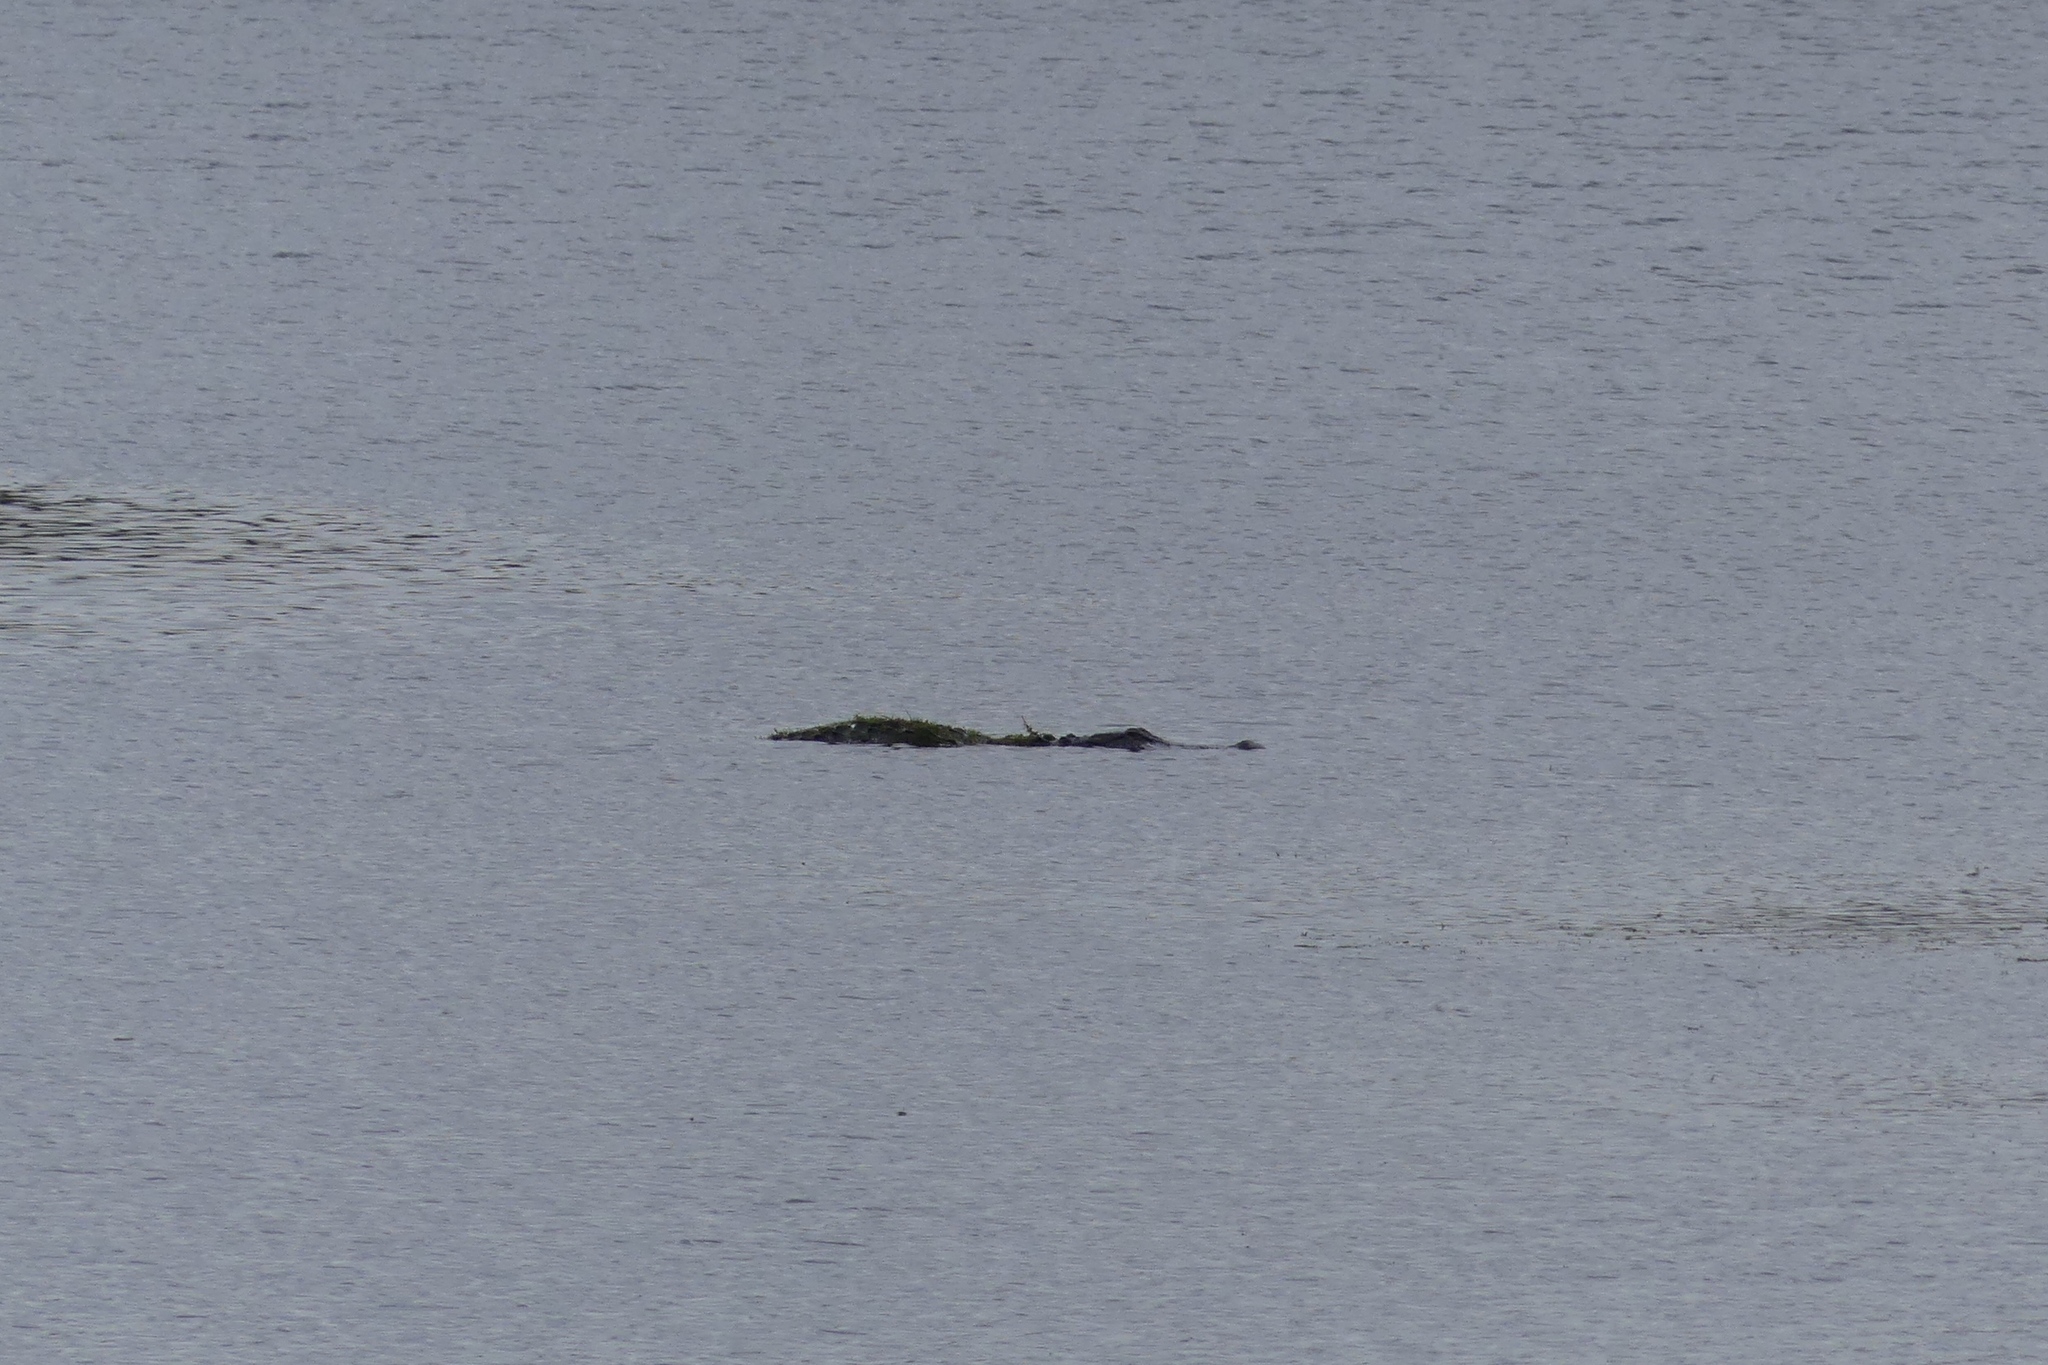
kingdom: Animalia
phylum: Chordata
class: Crocodylia
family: Alligatoridae
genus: Alligator
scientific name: Alligator mississippiensis
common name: American alligator
